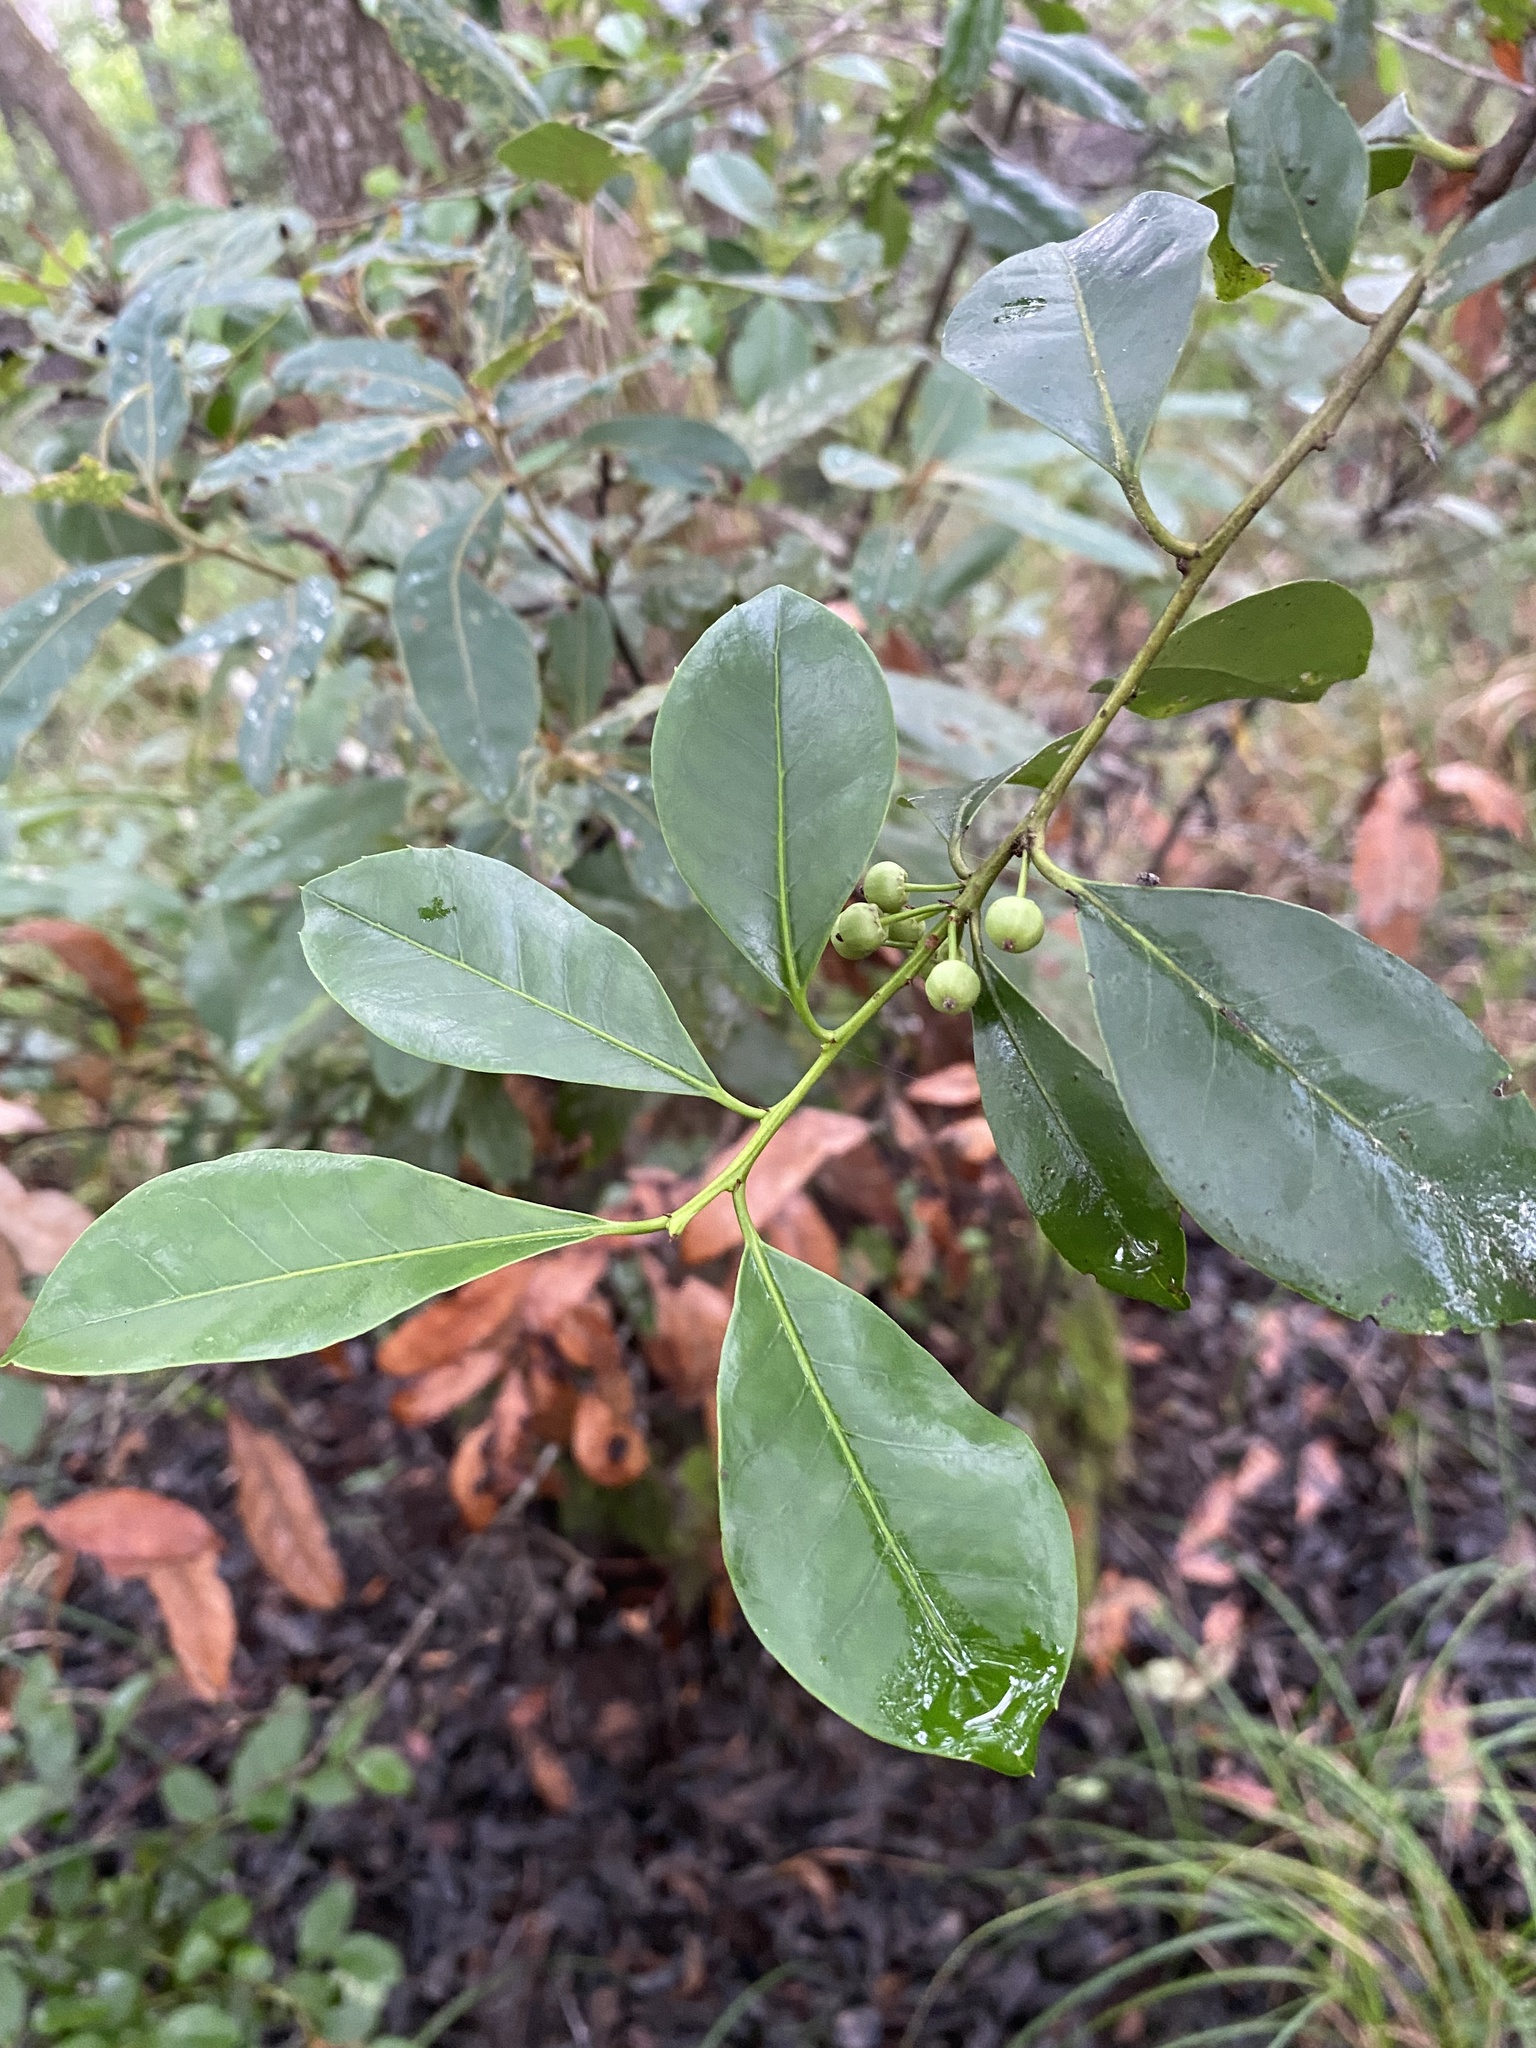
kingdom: Plantae
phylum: Tracheophyta
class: Magnoliopsida
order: Aquifoliales
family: Aquifoliaceae
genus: Ilex
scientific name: Ilex coriacea
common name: Sweet gallberry
